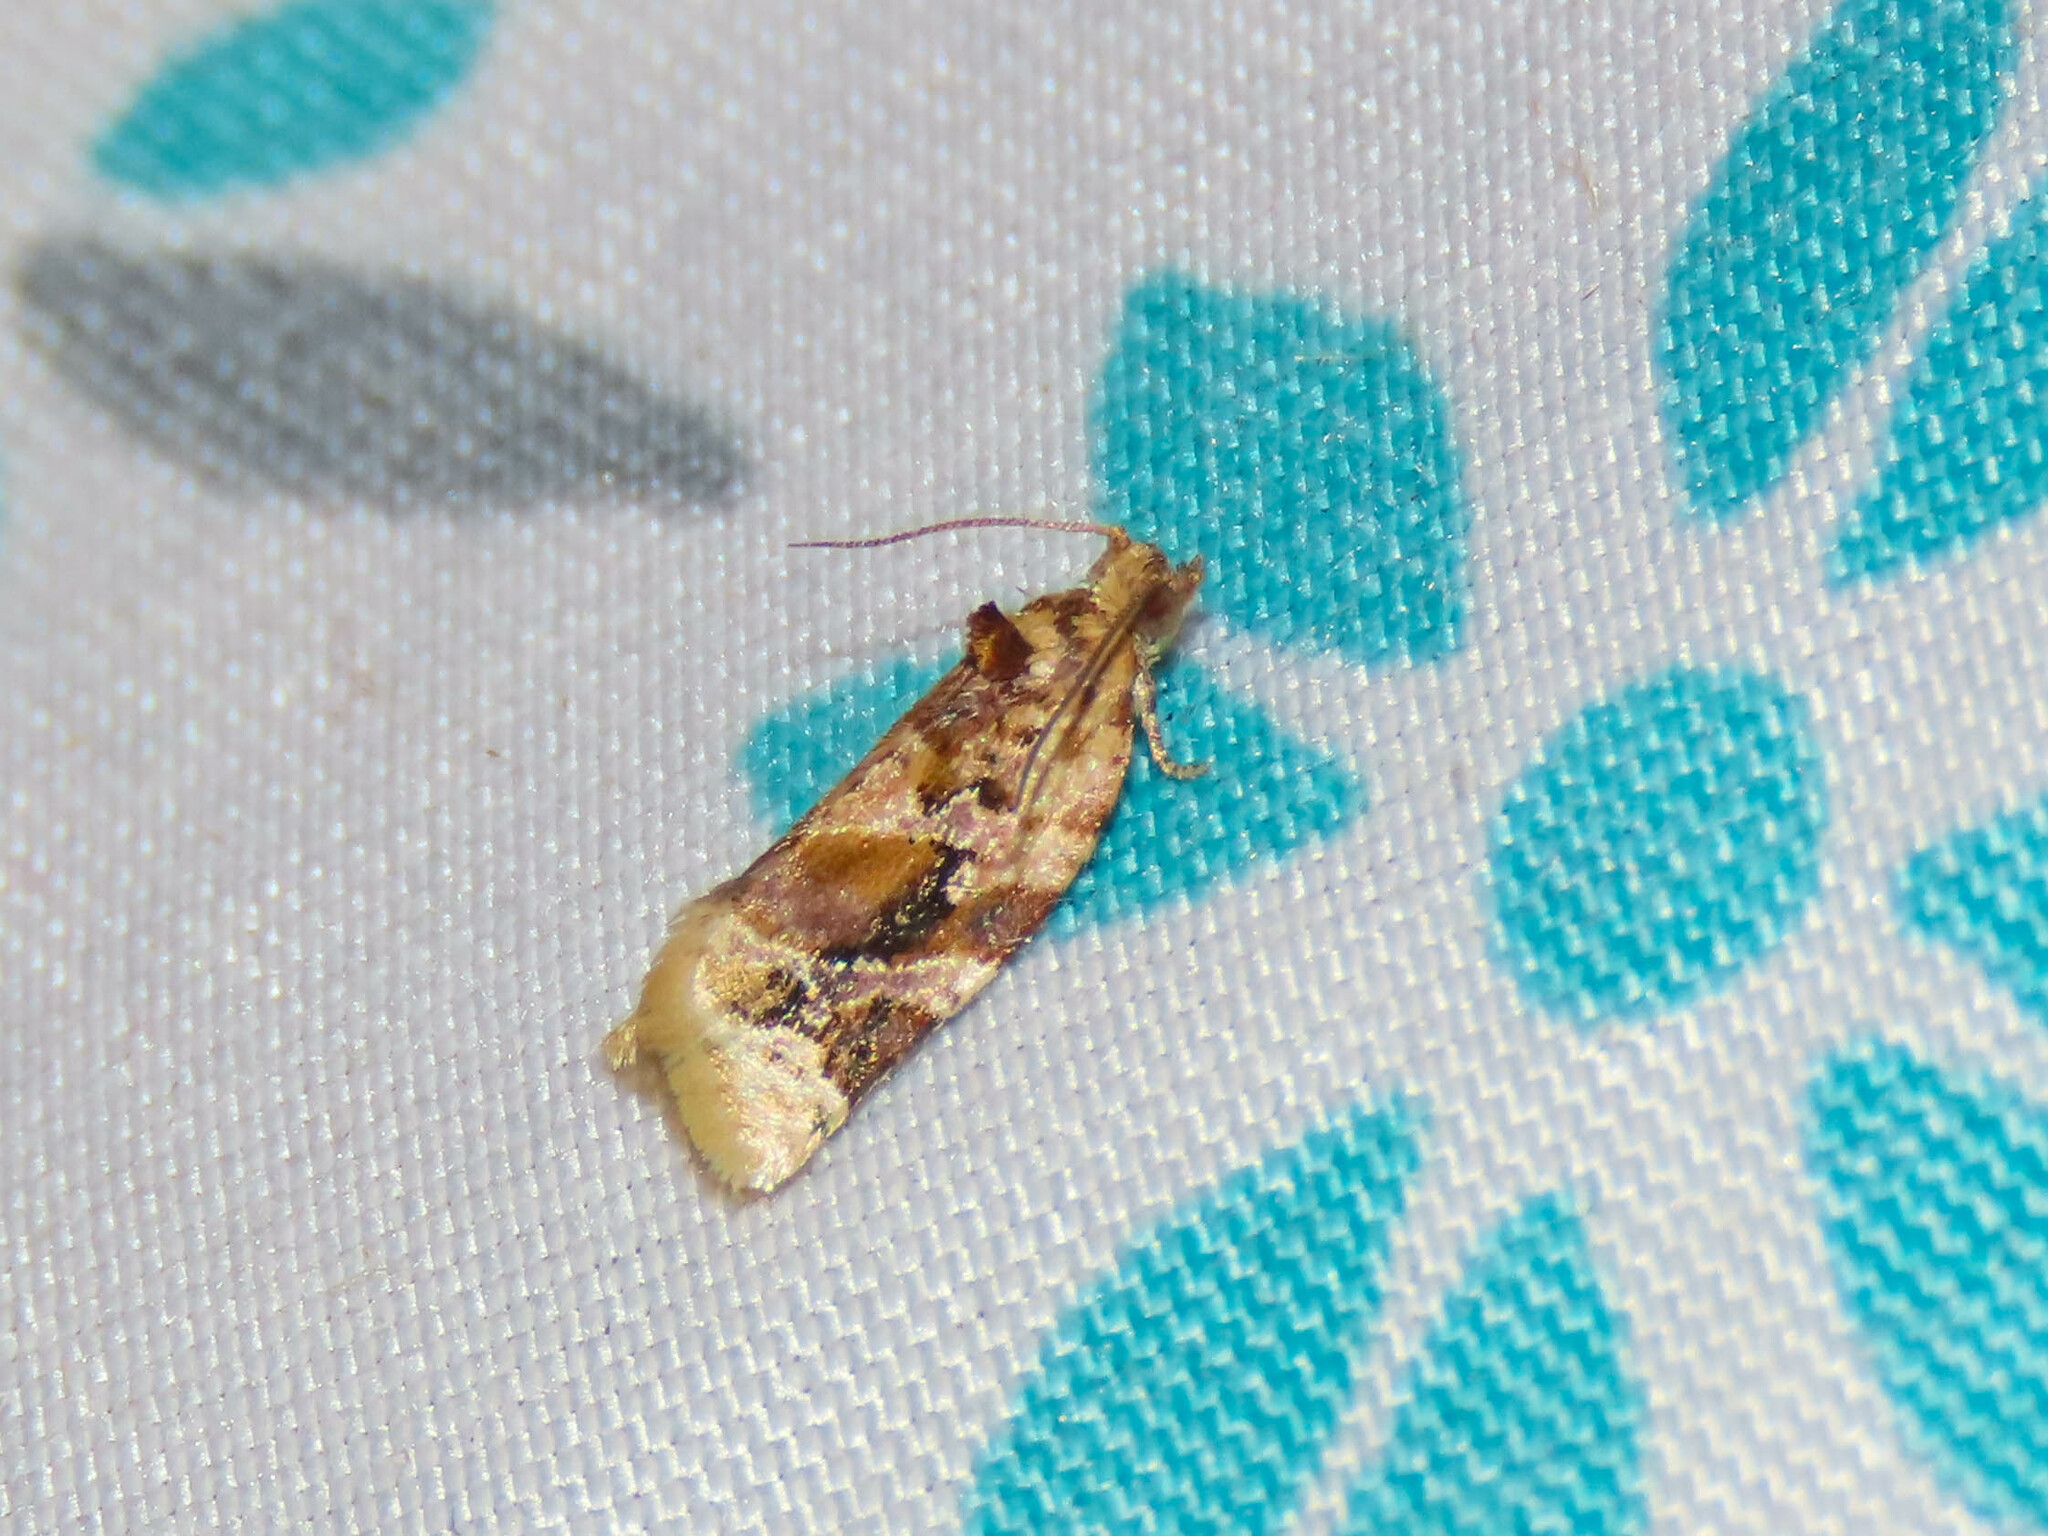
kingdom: Animalia
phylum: Arthropoda
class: Insecta
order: Lepidoptera
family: Tortricidae
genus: Argyrotaenia
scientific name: Argyrotaenia velutinana
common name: Red-banded leafroller moth
